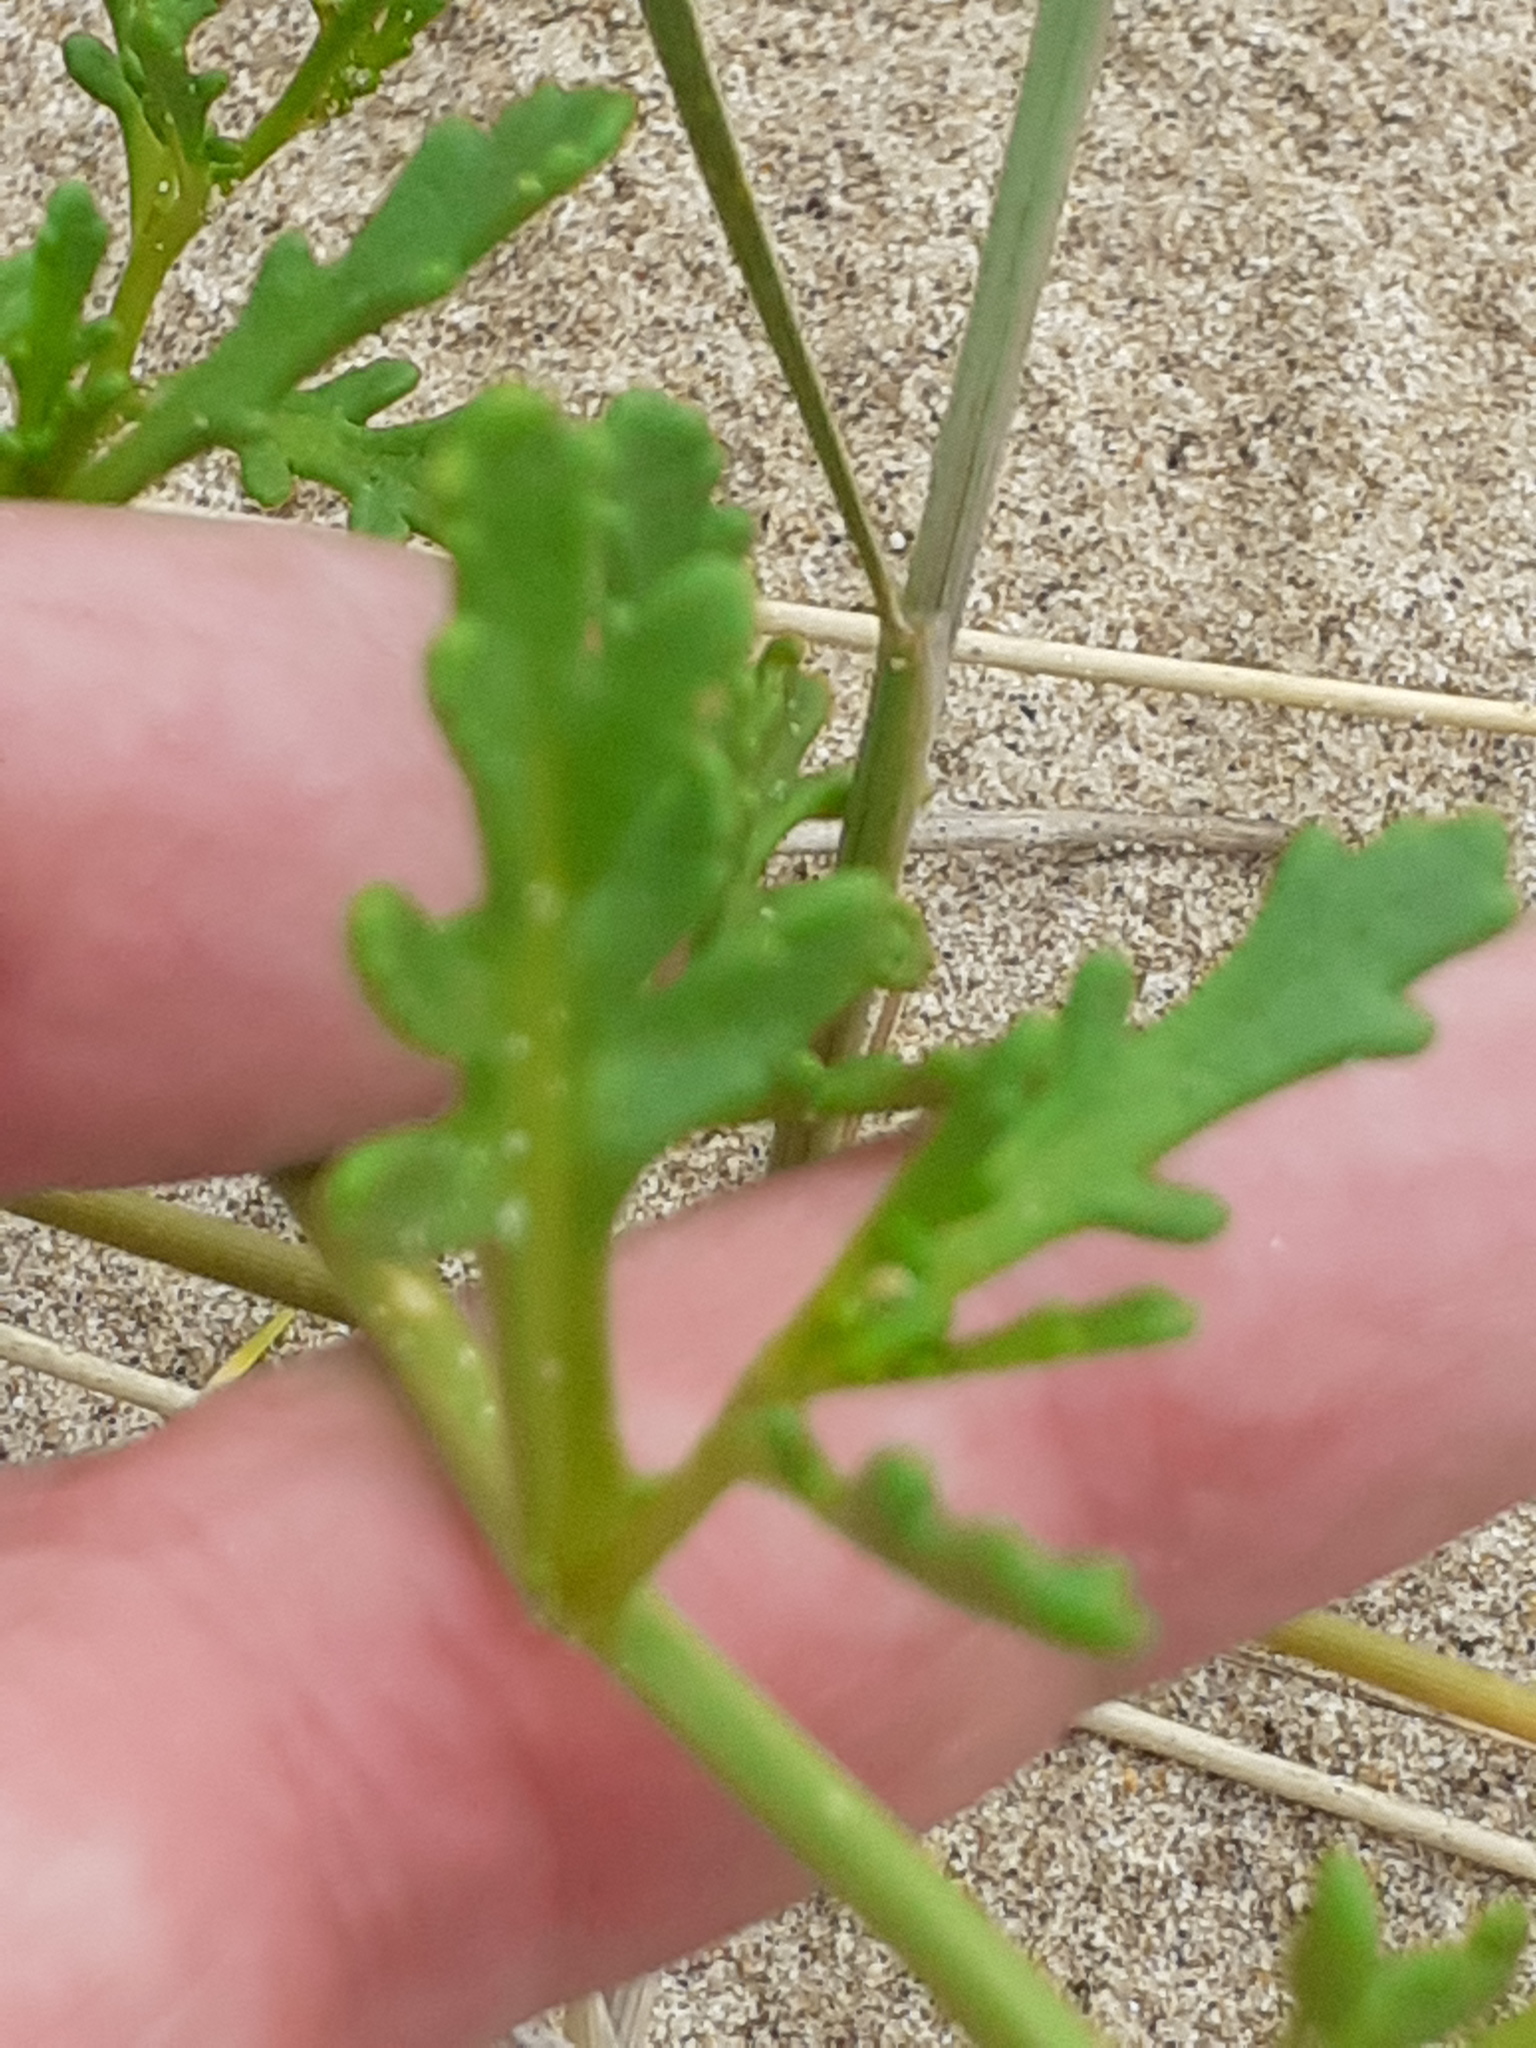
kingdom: Plantae
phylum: Tracheophyta
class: Magnoliopsida
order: Brassicales
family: Brassicaceae
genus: Cakile
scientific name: Cakile maritima
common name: Sea rocket
